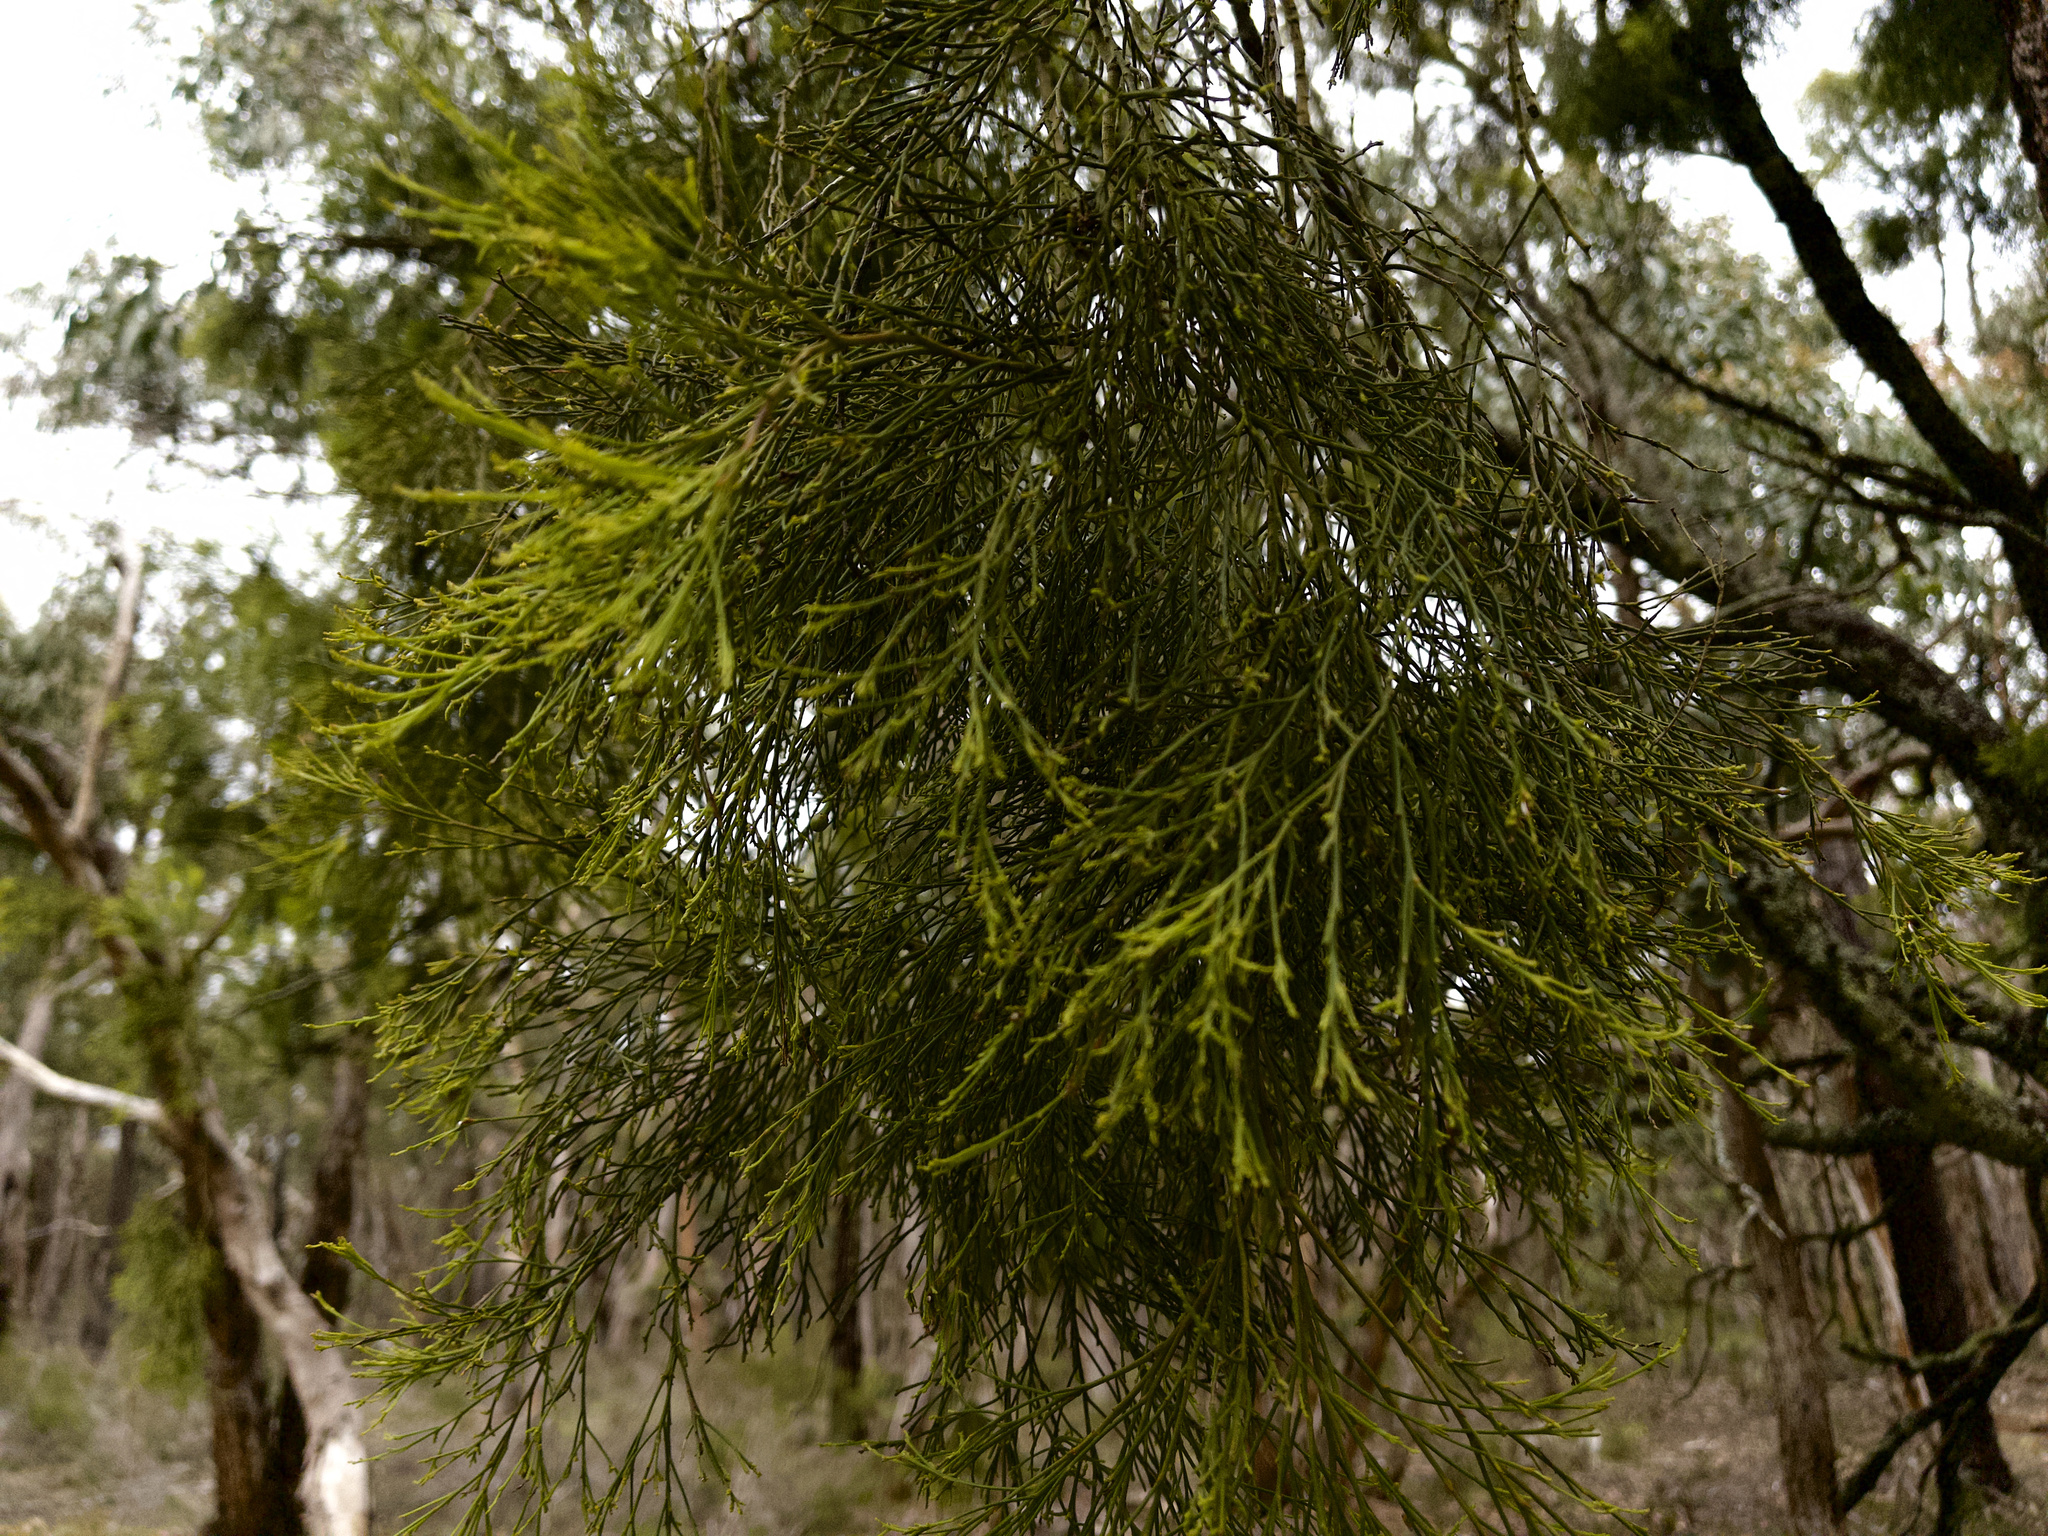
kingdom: Plantae
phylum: Tracheophyta
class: Magnoliopsida
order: Santalales
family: Santalaceae
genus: Exocarpos
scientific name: Exocarpos cupressiformis
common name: Cherry ballart
